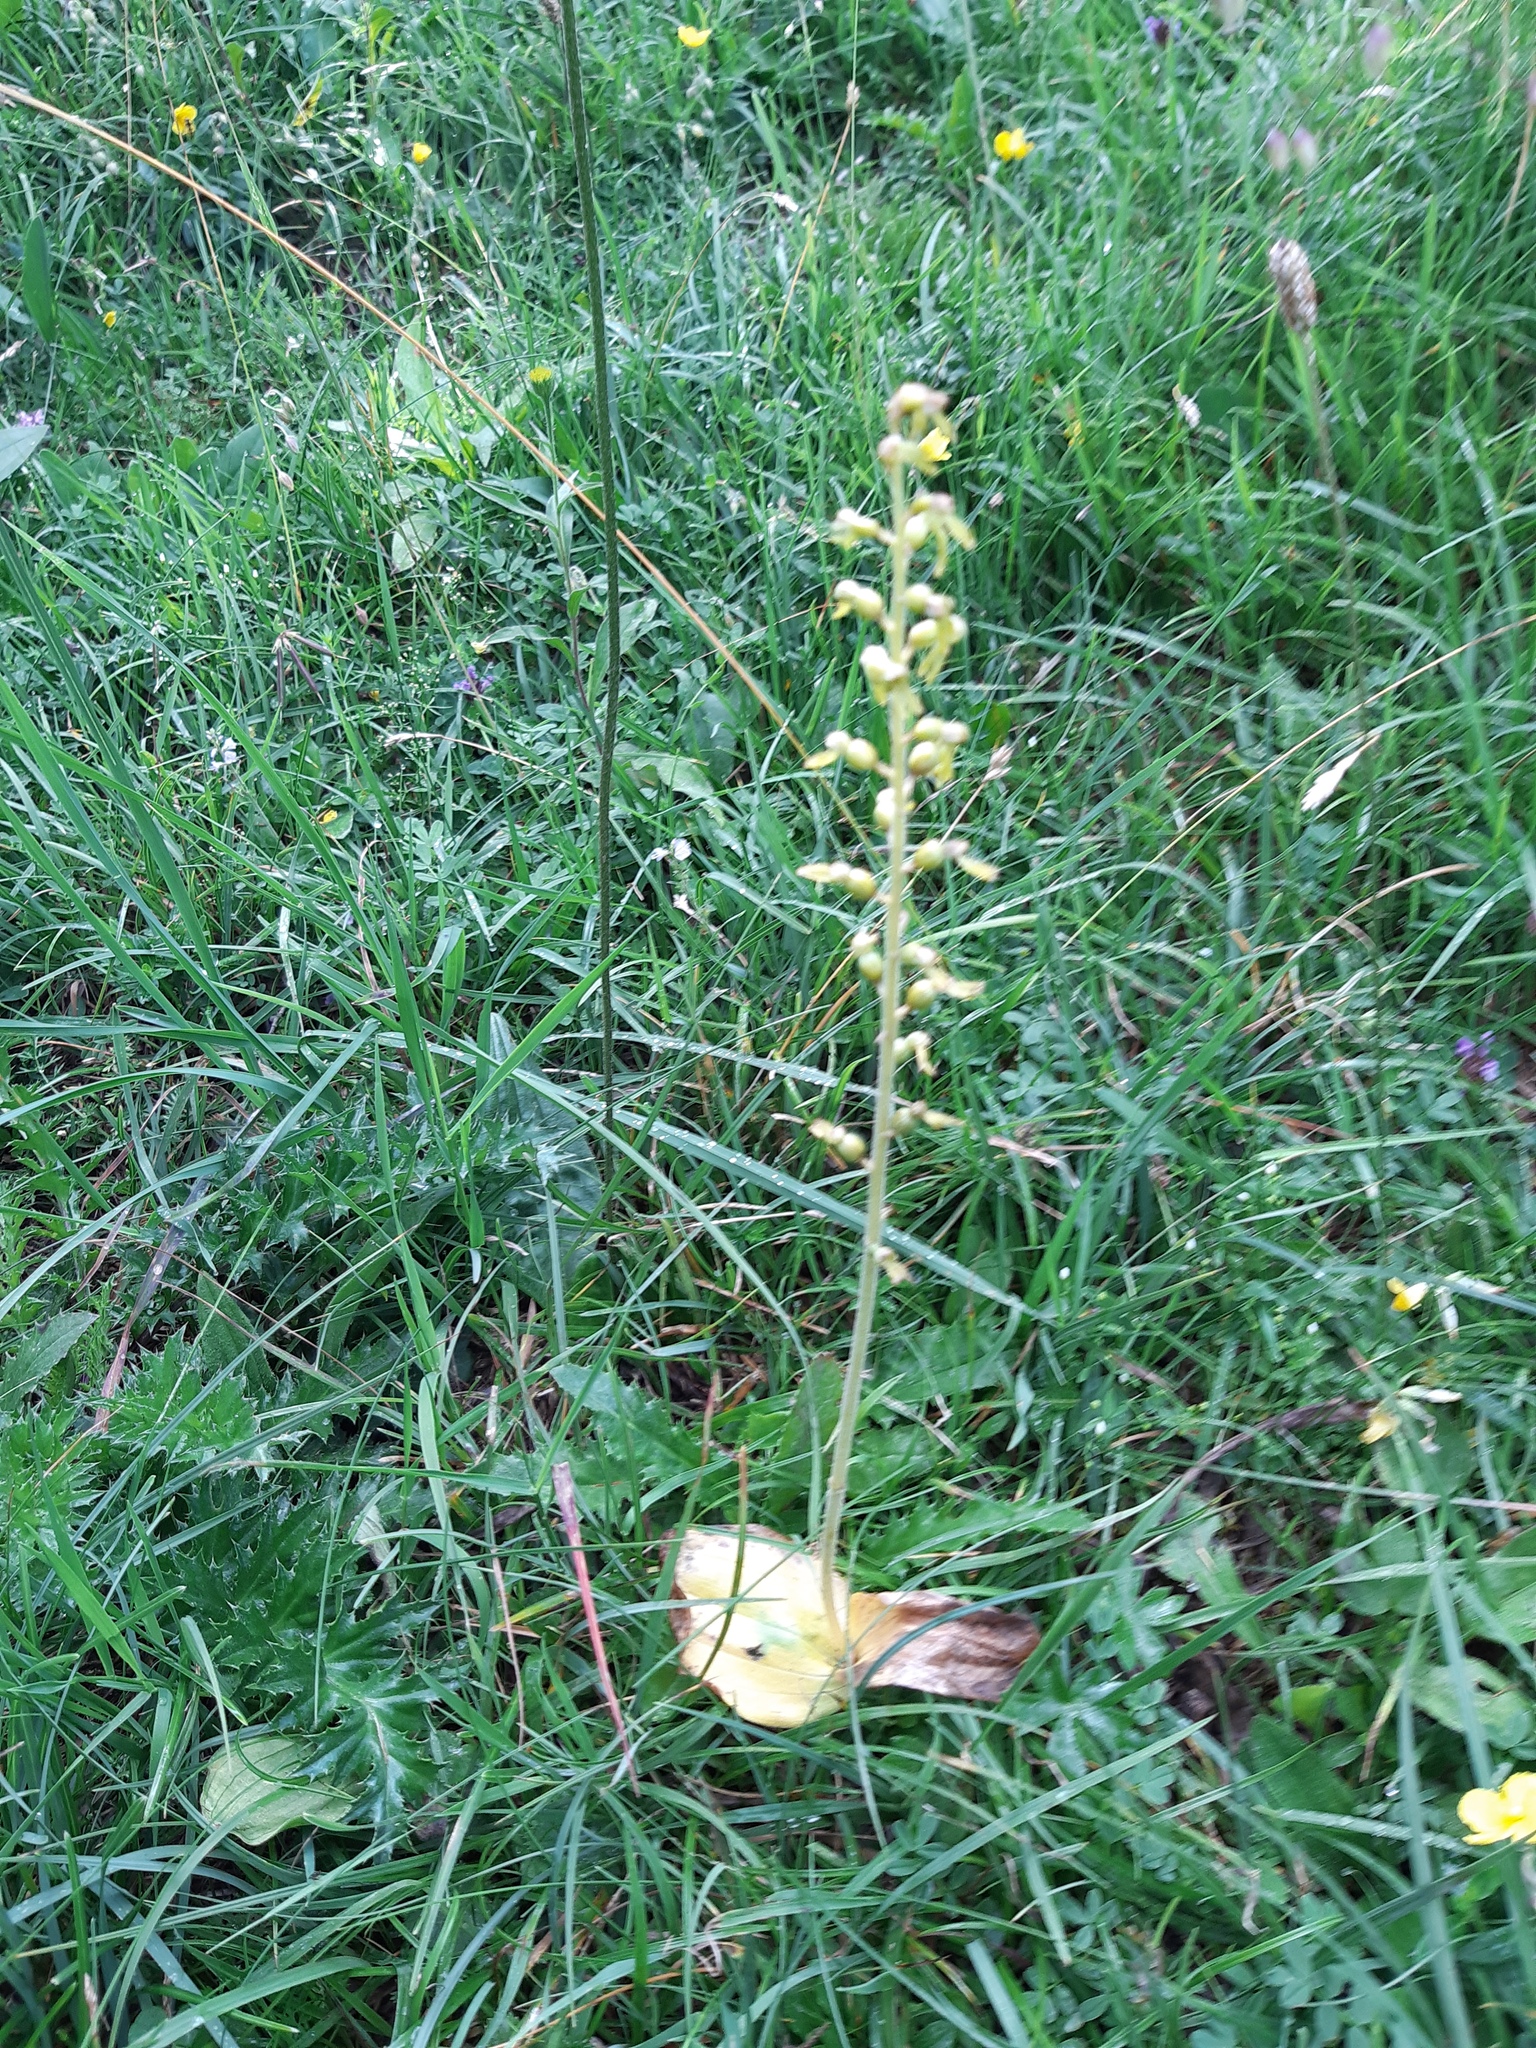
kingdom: Plantae
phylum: Tracheophyta
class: Liliopsida
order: Asparagales
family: Orchidaceae
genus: Neottia
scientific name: Neottia ovata
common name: Common twayblade
